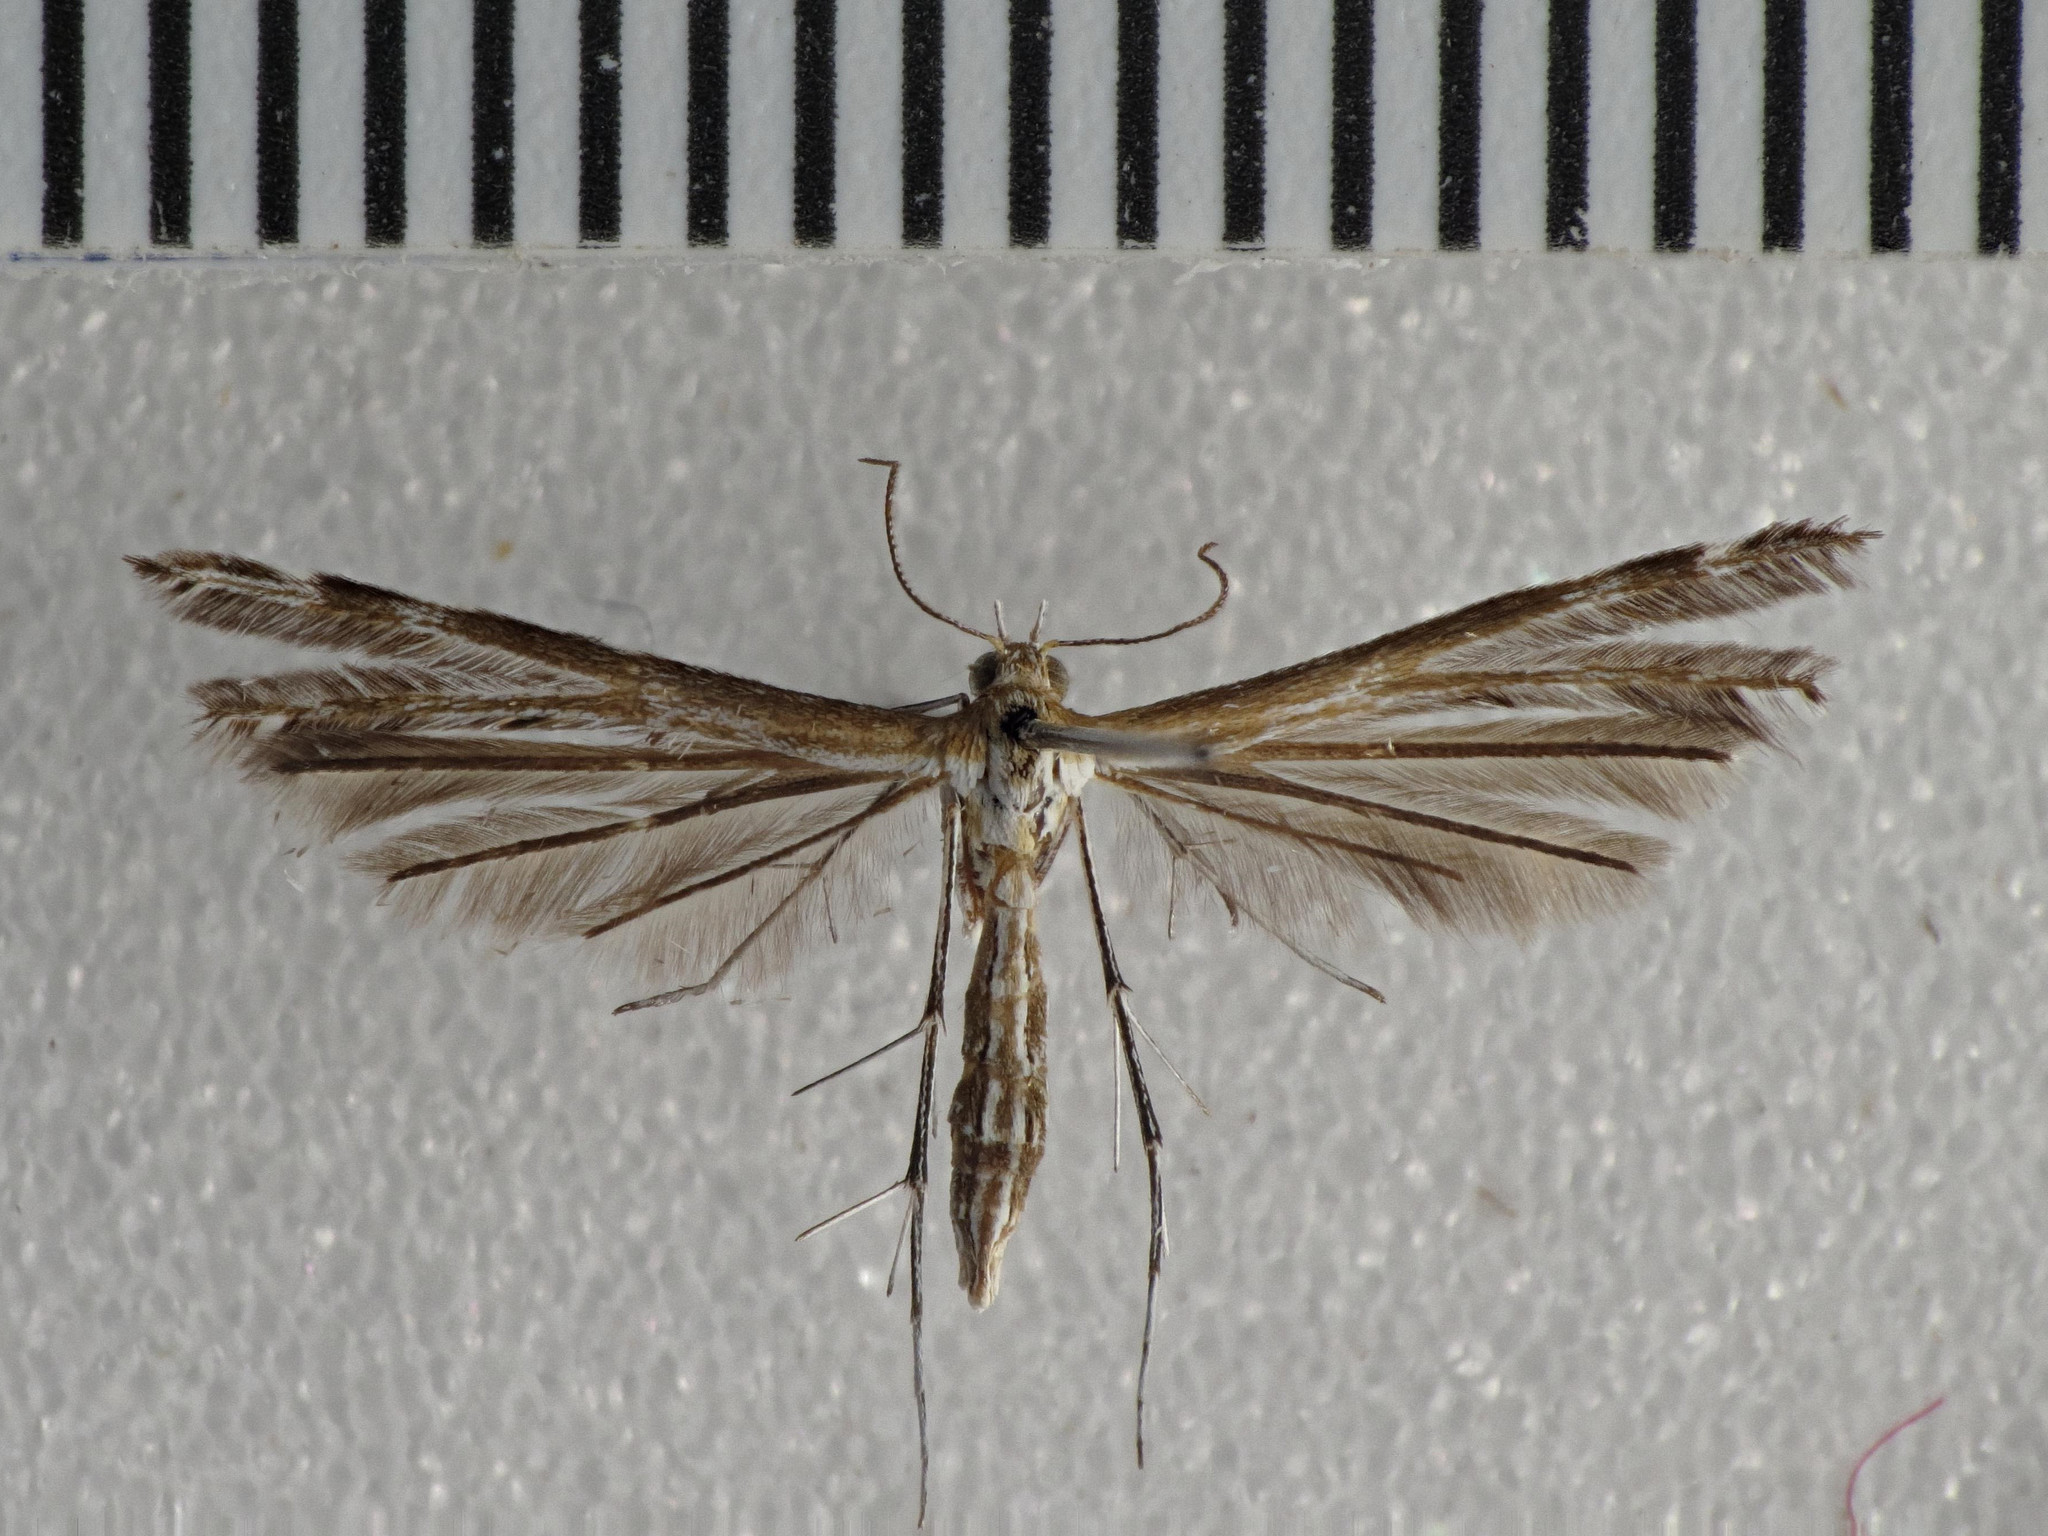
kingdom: Animalia
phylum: Arthropoda
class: Insecta
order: Lepidoptera
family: Pterophoridae
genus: Stangeia
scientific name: Stangeia xerodes
